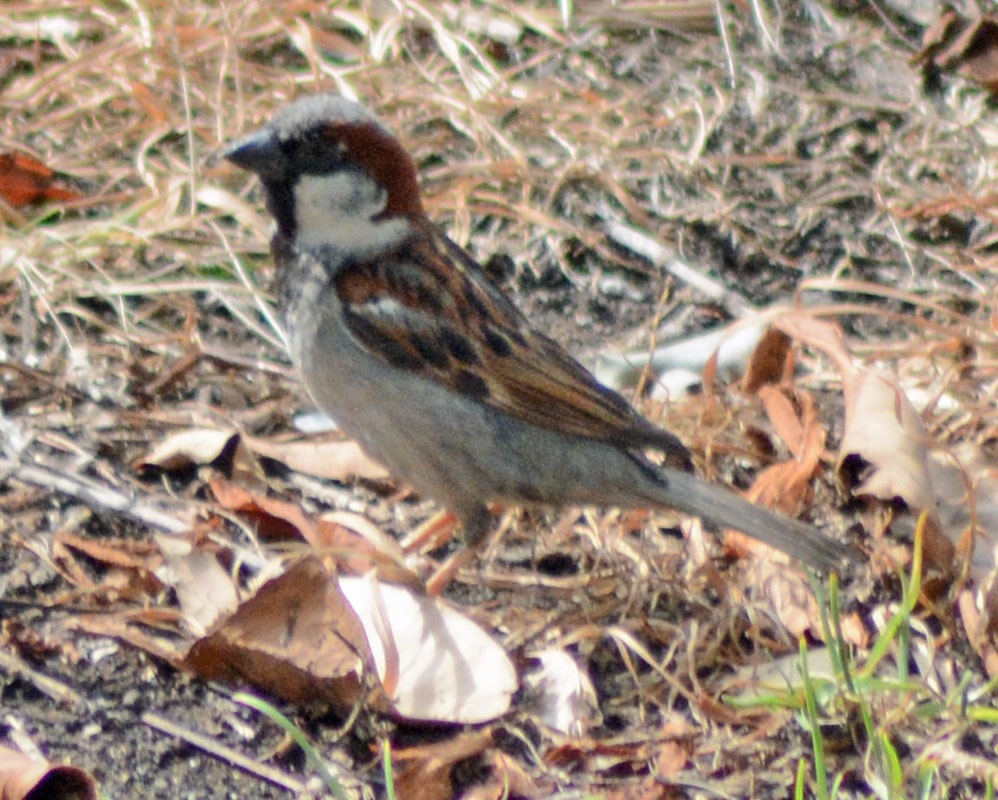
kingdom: Animalia
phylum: Chordata
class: Aves
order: Passeriformes
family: Passeridae
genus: Passer
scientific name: Passer domesticus
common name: House sparrow
